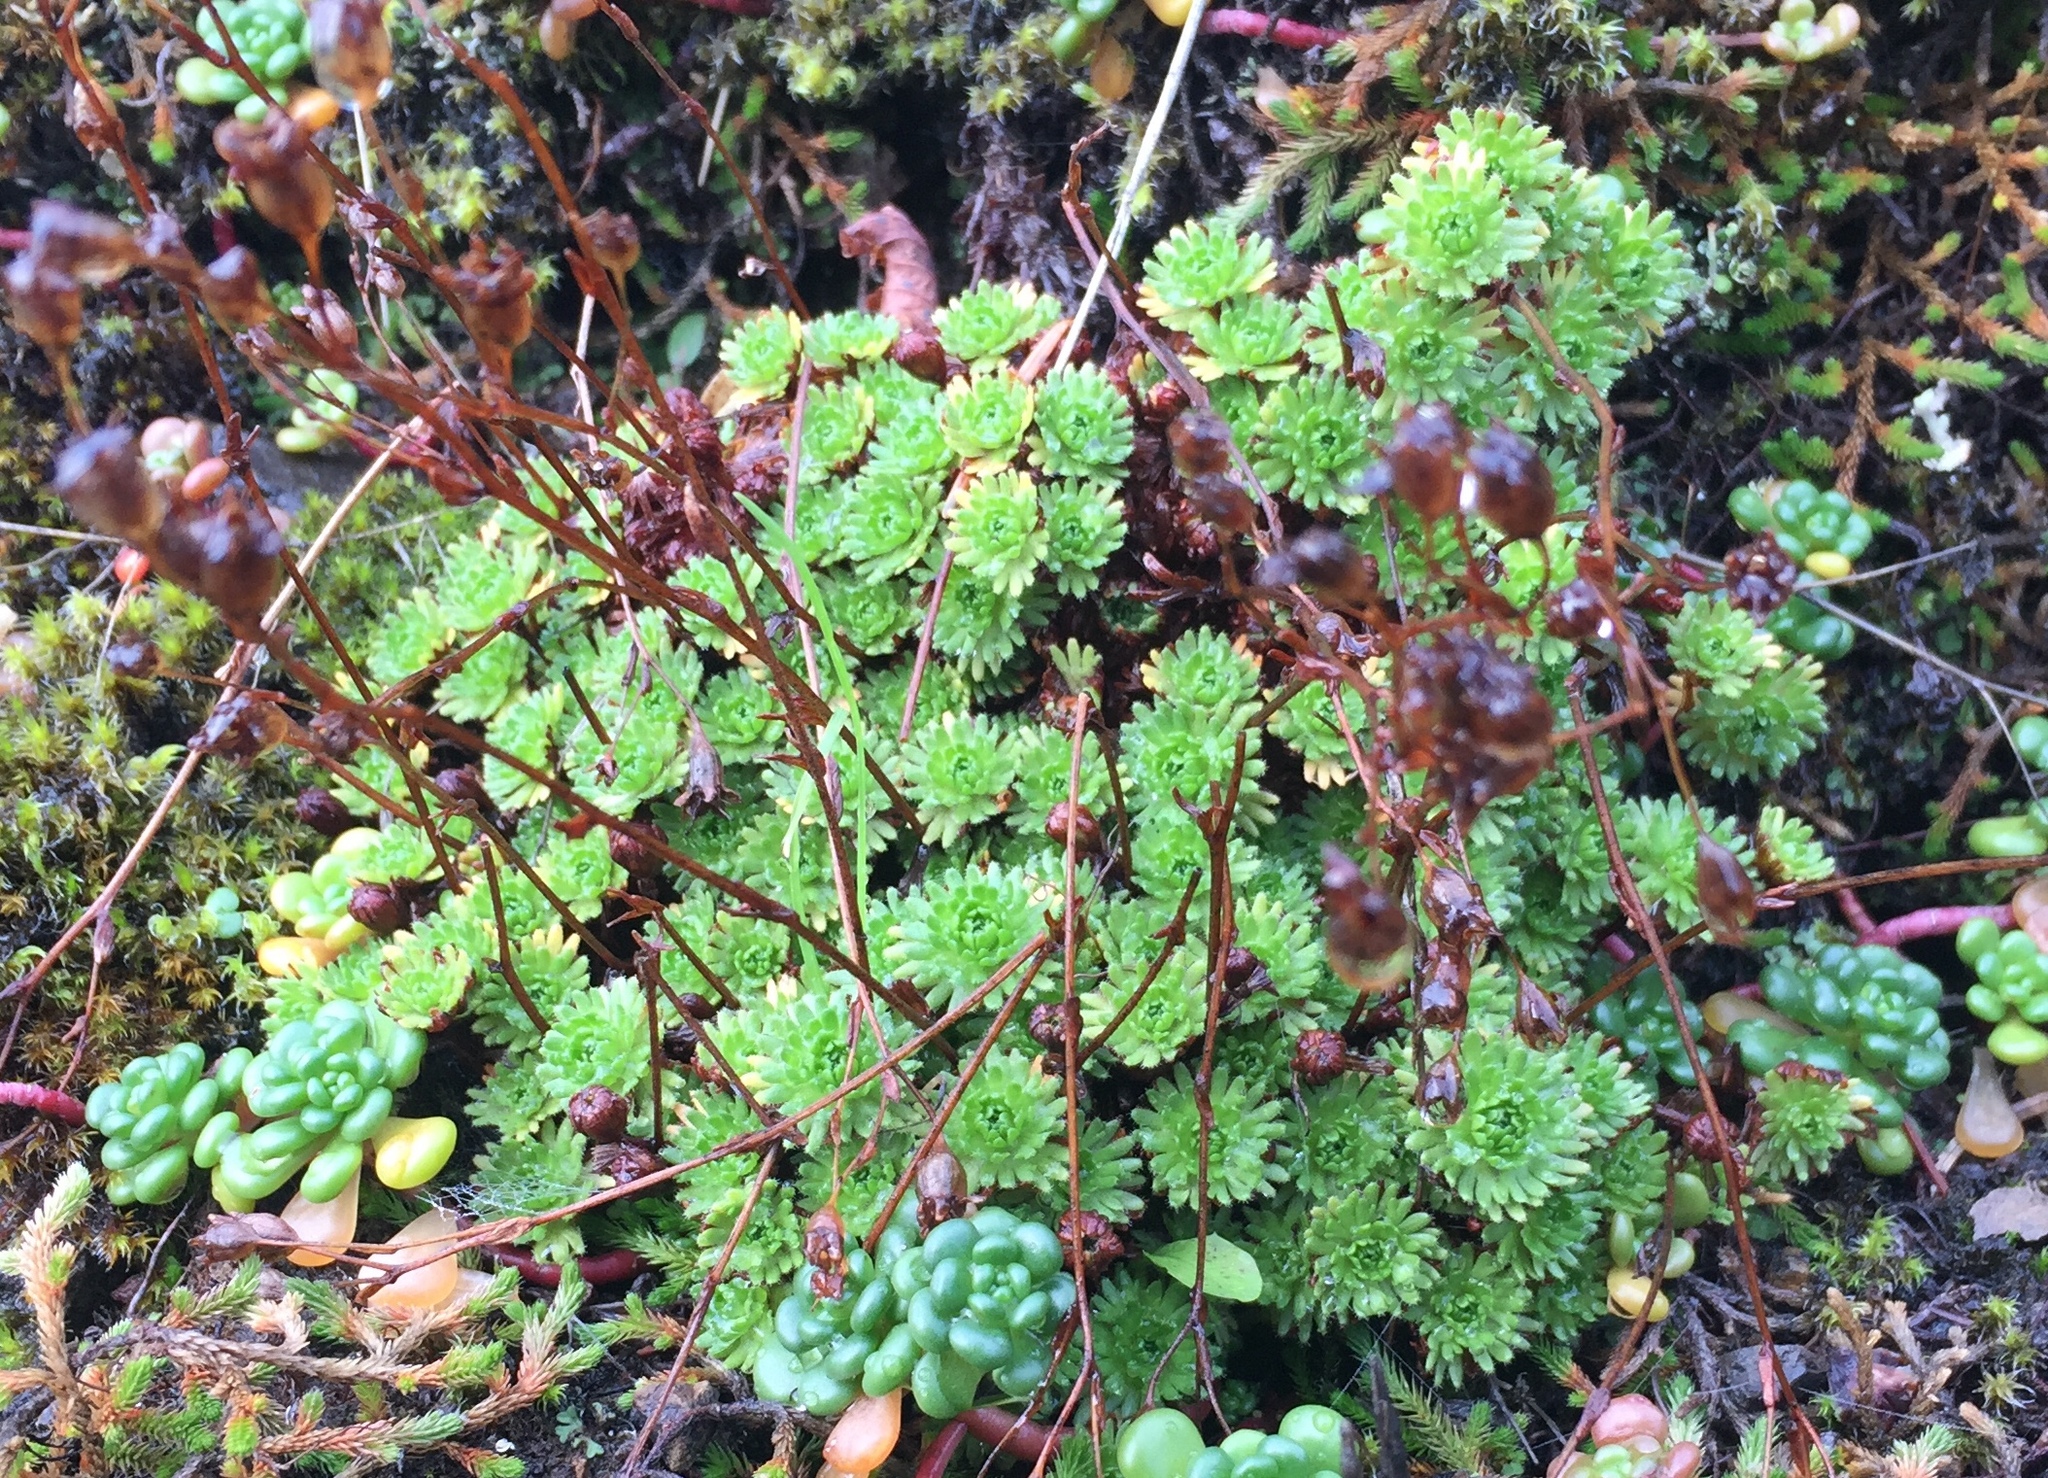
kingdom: Plantae
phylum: Tracheophyta
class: Magnoliopsida
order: Saxifragales
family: Saxifragaceae
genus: Saxifraga
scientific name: Saxifraga cespitosa
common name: Tufted saxifrage
